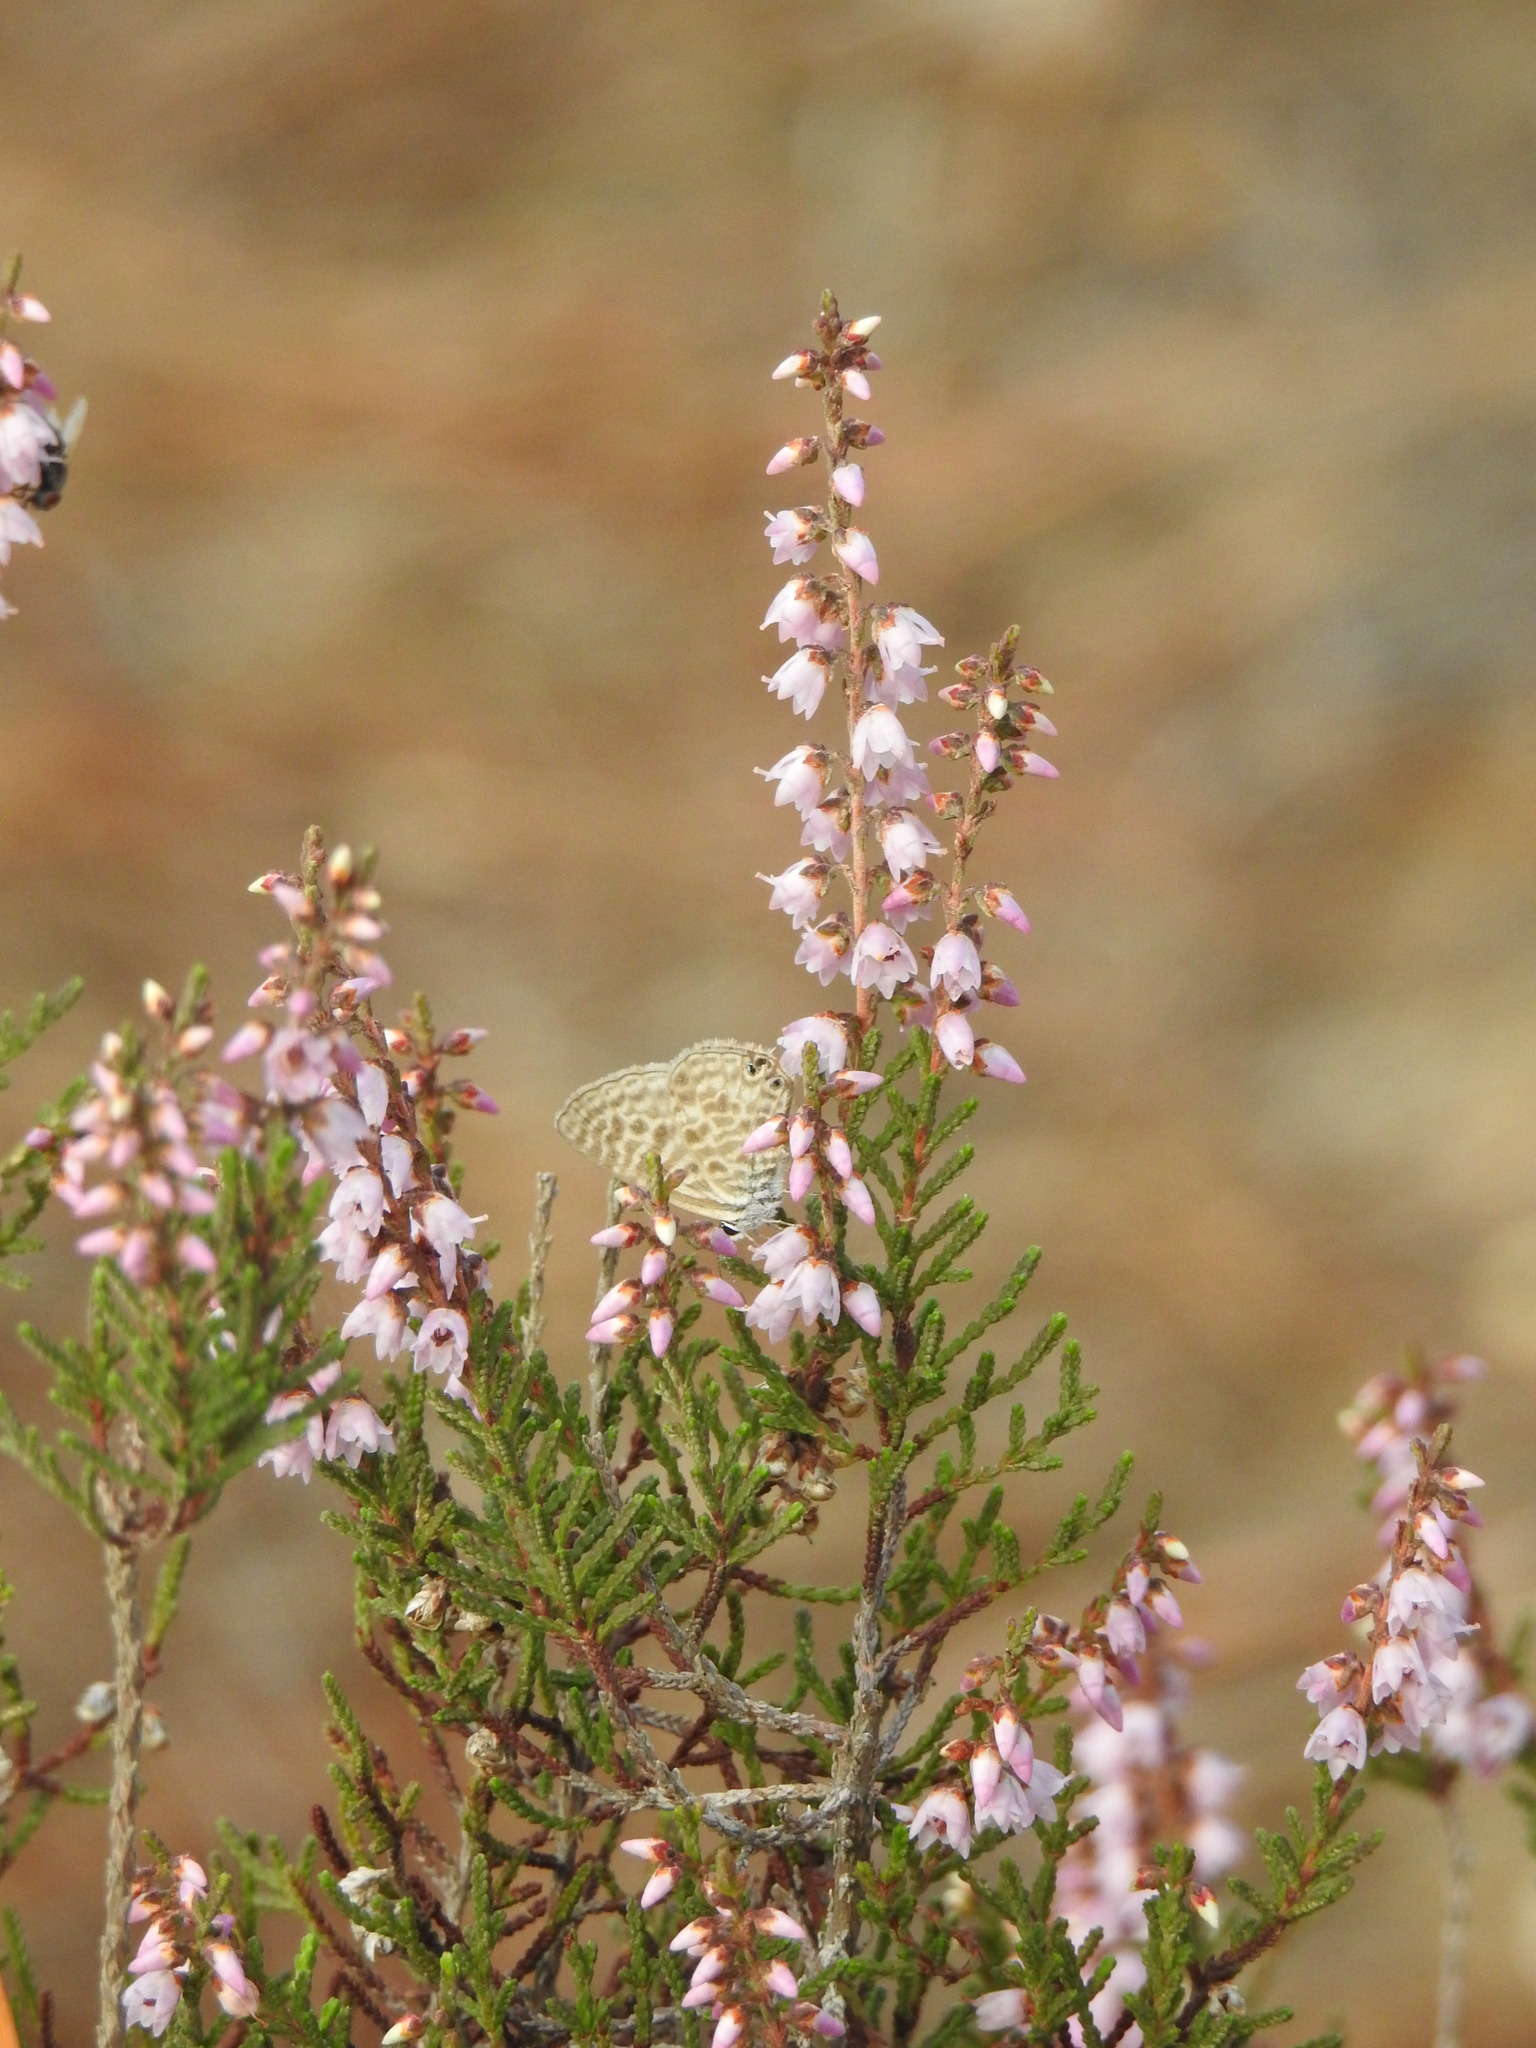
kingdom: Animalia
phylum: Arthropoda
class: Insecta
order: Lepidoptera
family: Lycaenidae
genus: Leptotes
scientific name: Leptotes pirithous
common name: Lang's short-tailed blue
